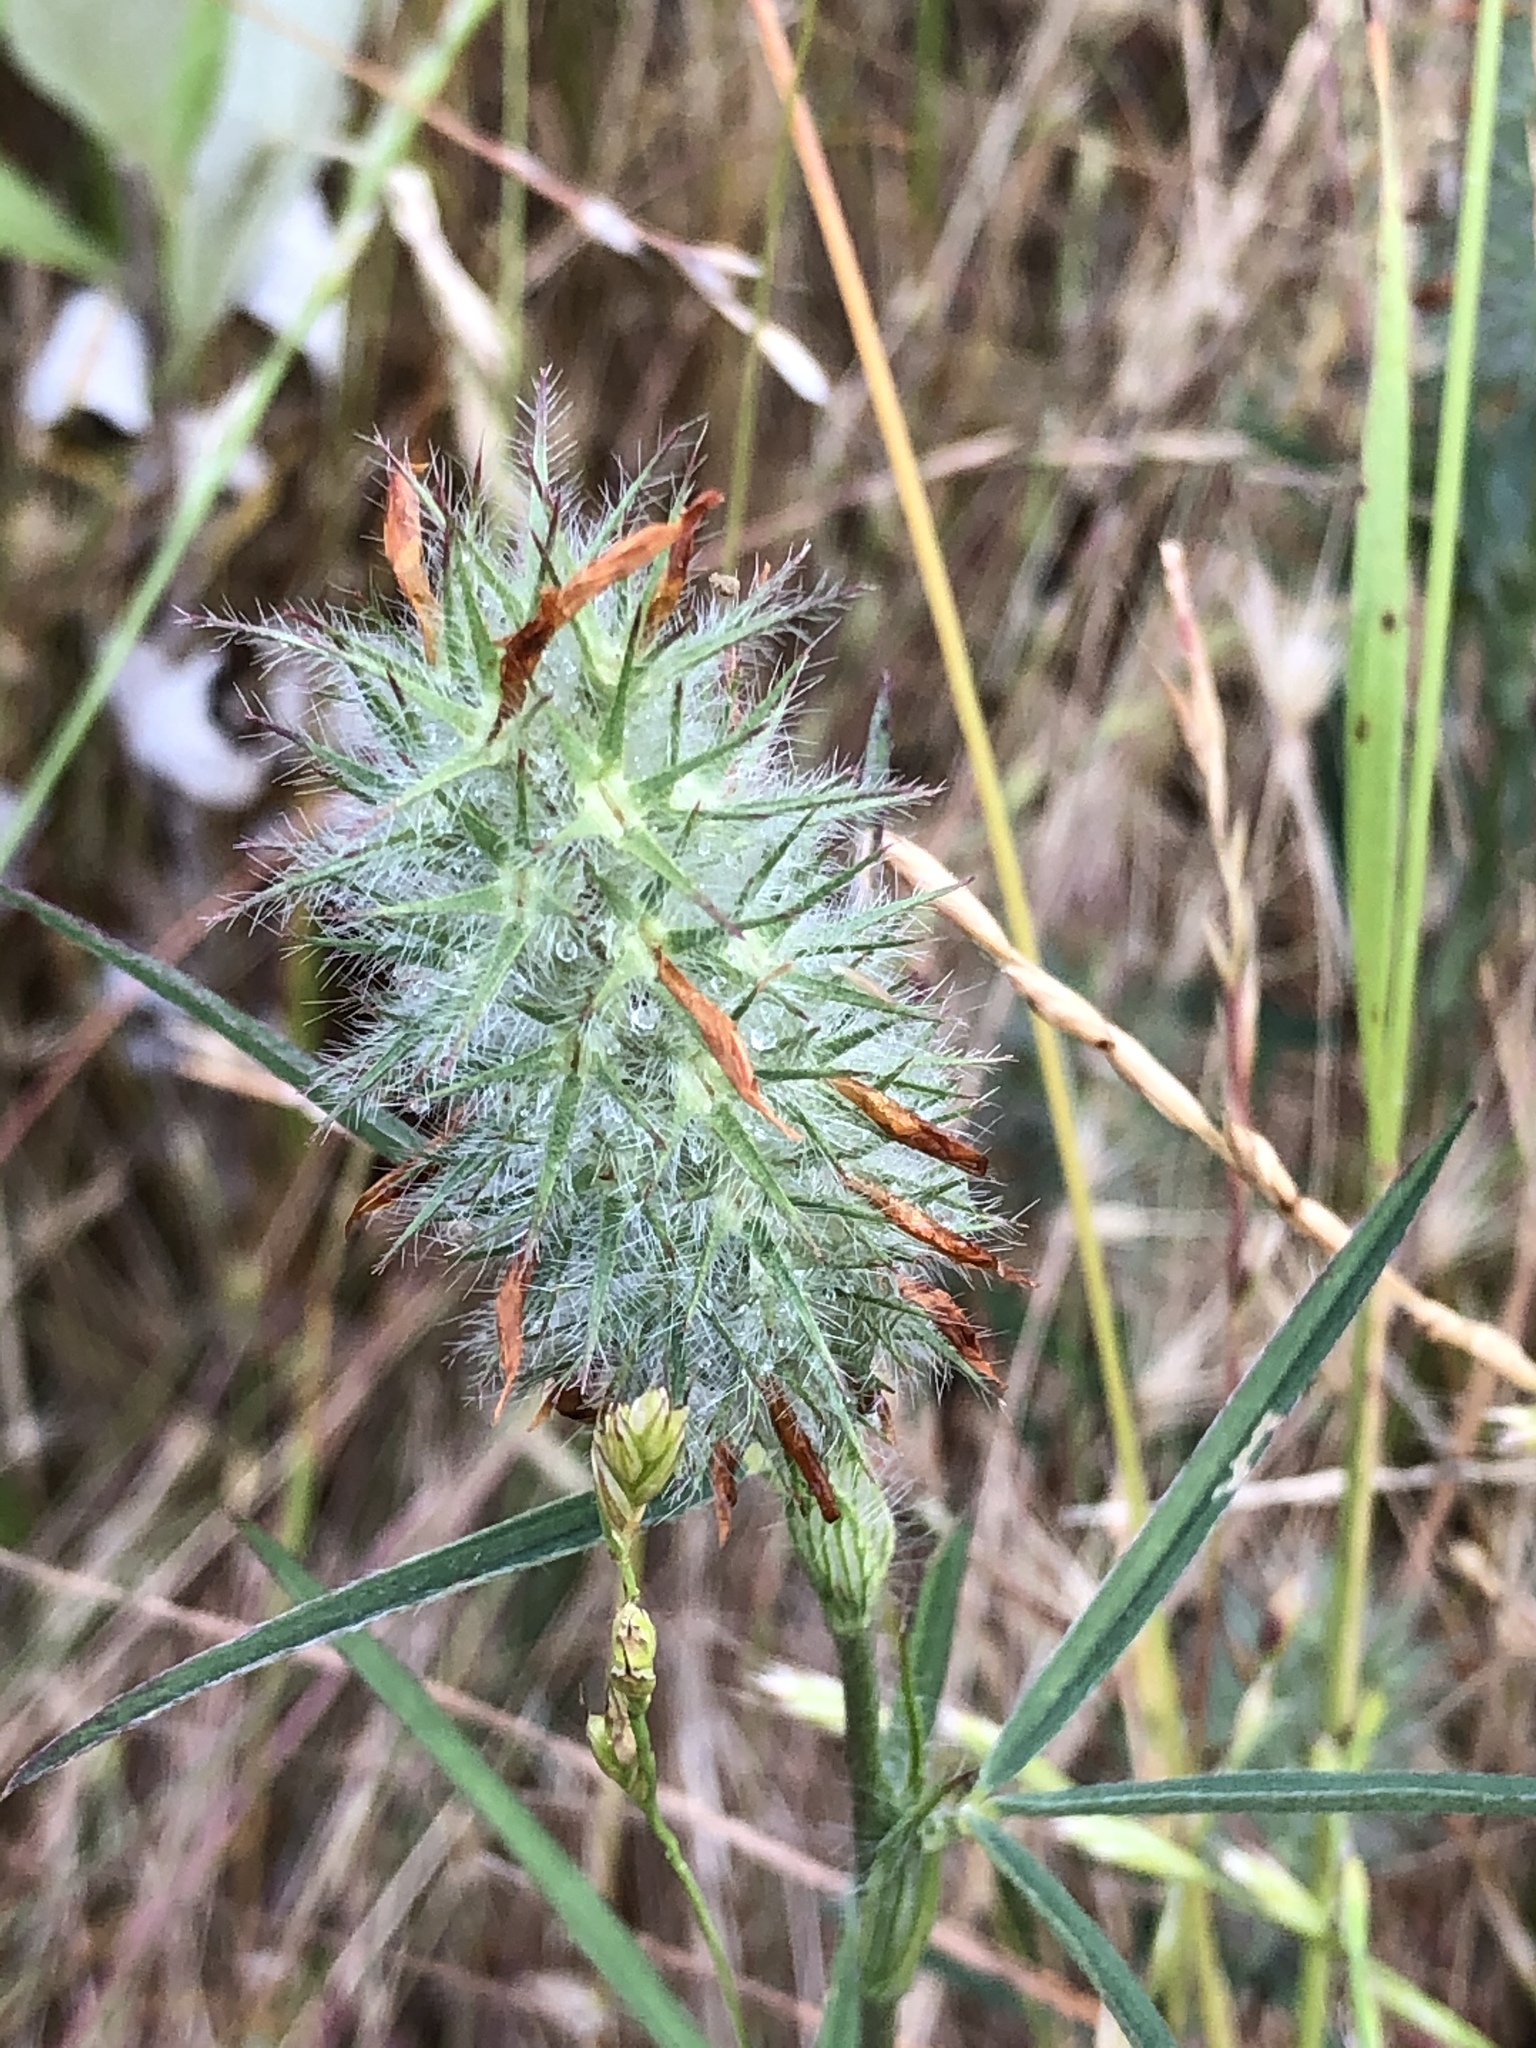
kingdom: Plantae
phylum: Tracheophyta
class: Magnoliopsida
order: Fabales
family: Fabaceae
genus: Trifolium
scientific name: Trifolium angustifolium
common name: Narrow clover
